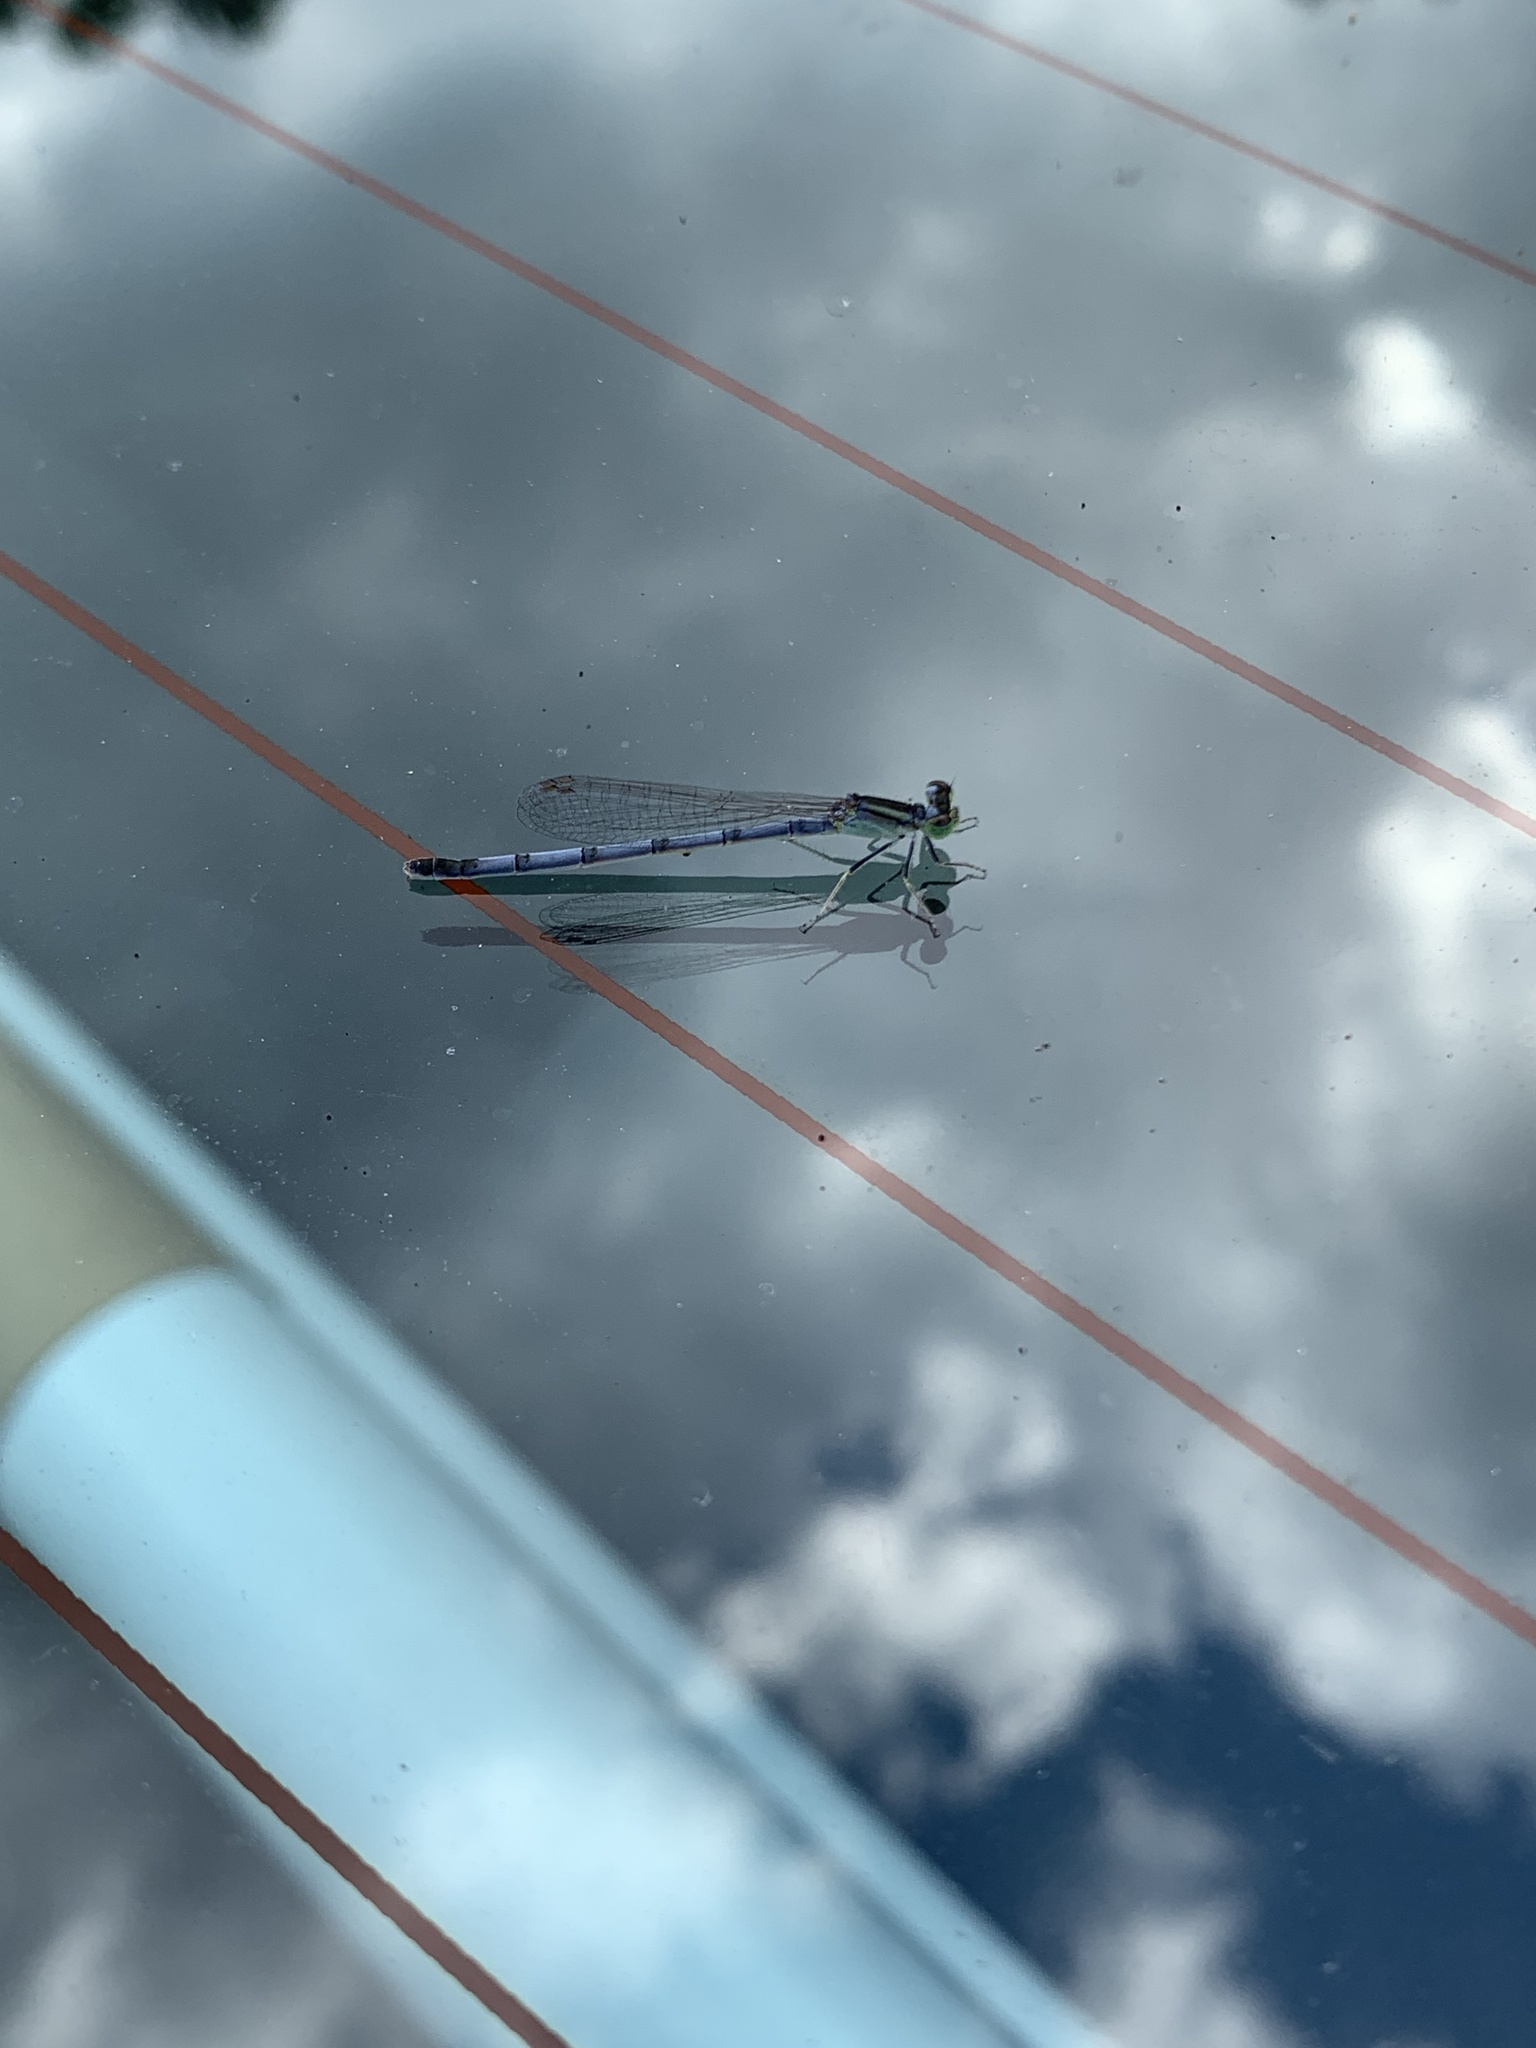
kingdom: Animalia
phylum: Arthropoda
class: Insecta
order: Odonata
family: Coenagrionidae
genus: Ischnura
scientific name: Ischnura verticalis
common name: Eastern forktail
